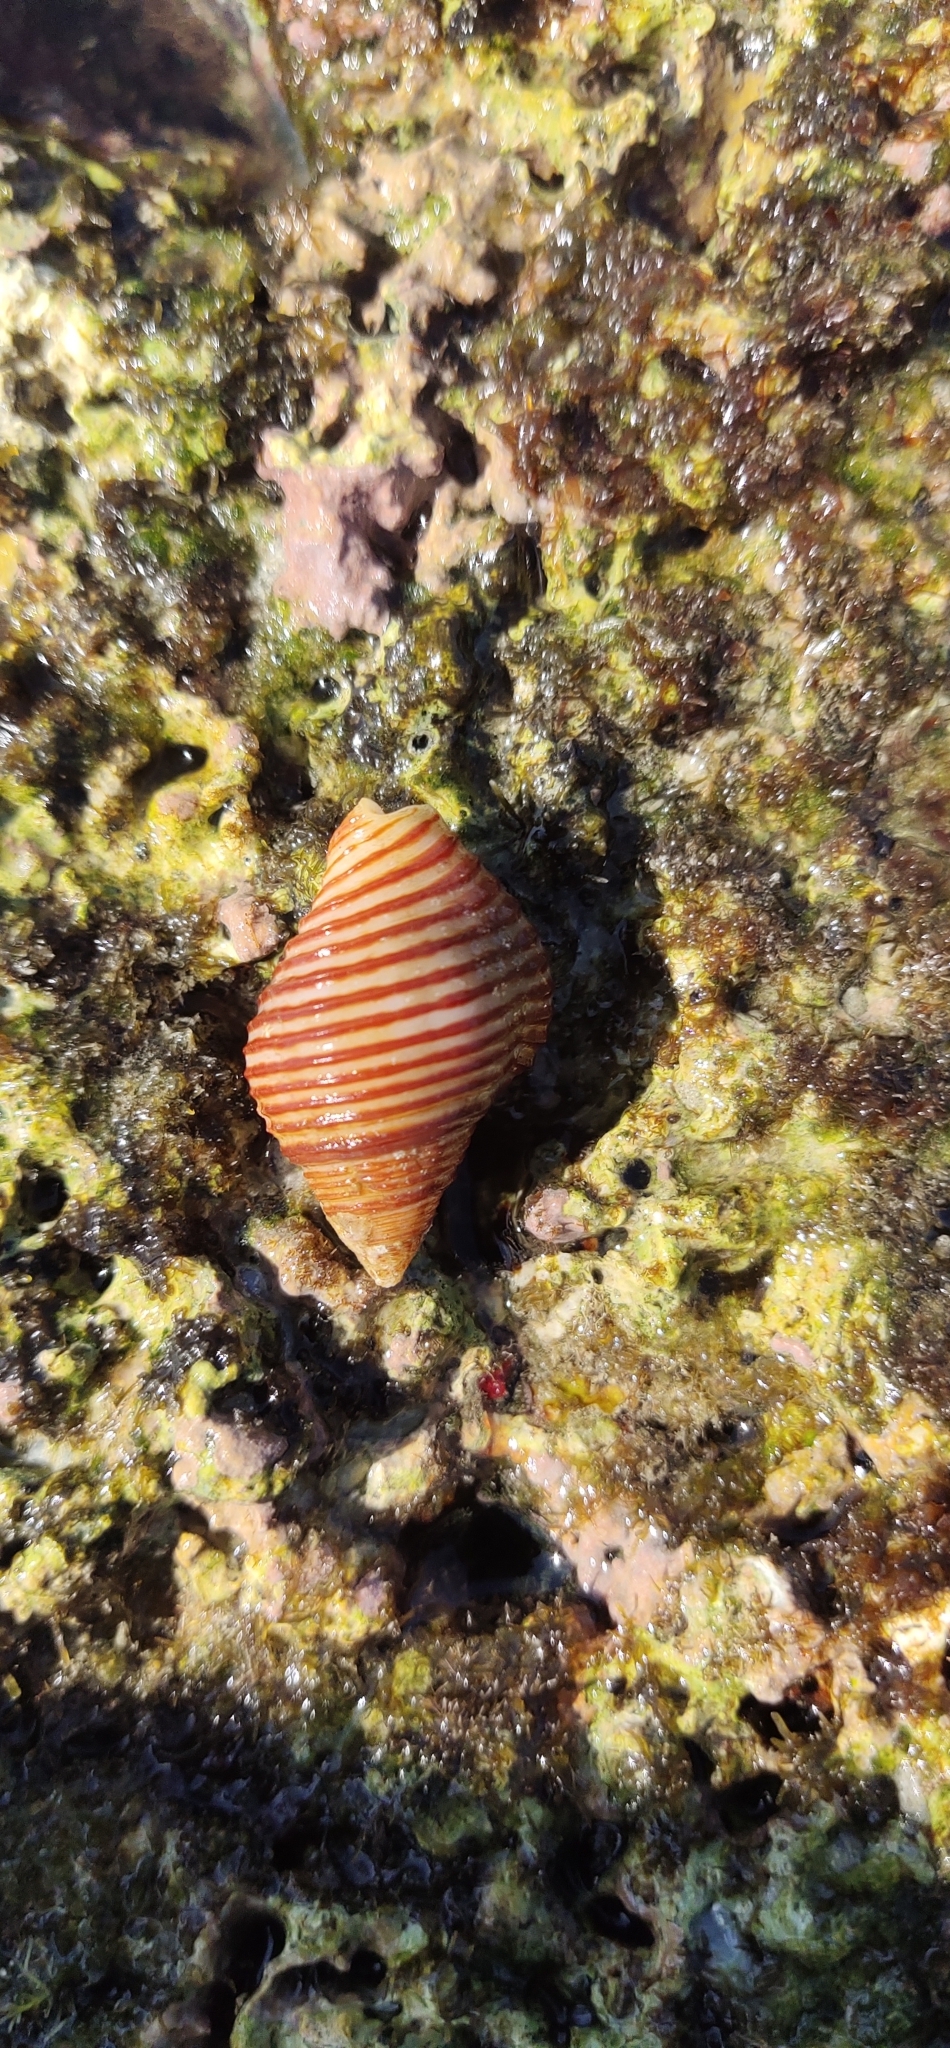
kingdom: Animalia
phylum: Mollusca
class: Gastropoda
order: Neogastropoda
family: Pisaniidae
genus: Pollia
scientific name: Pollia undosa
